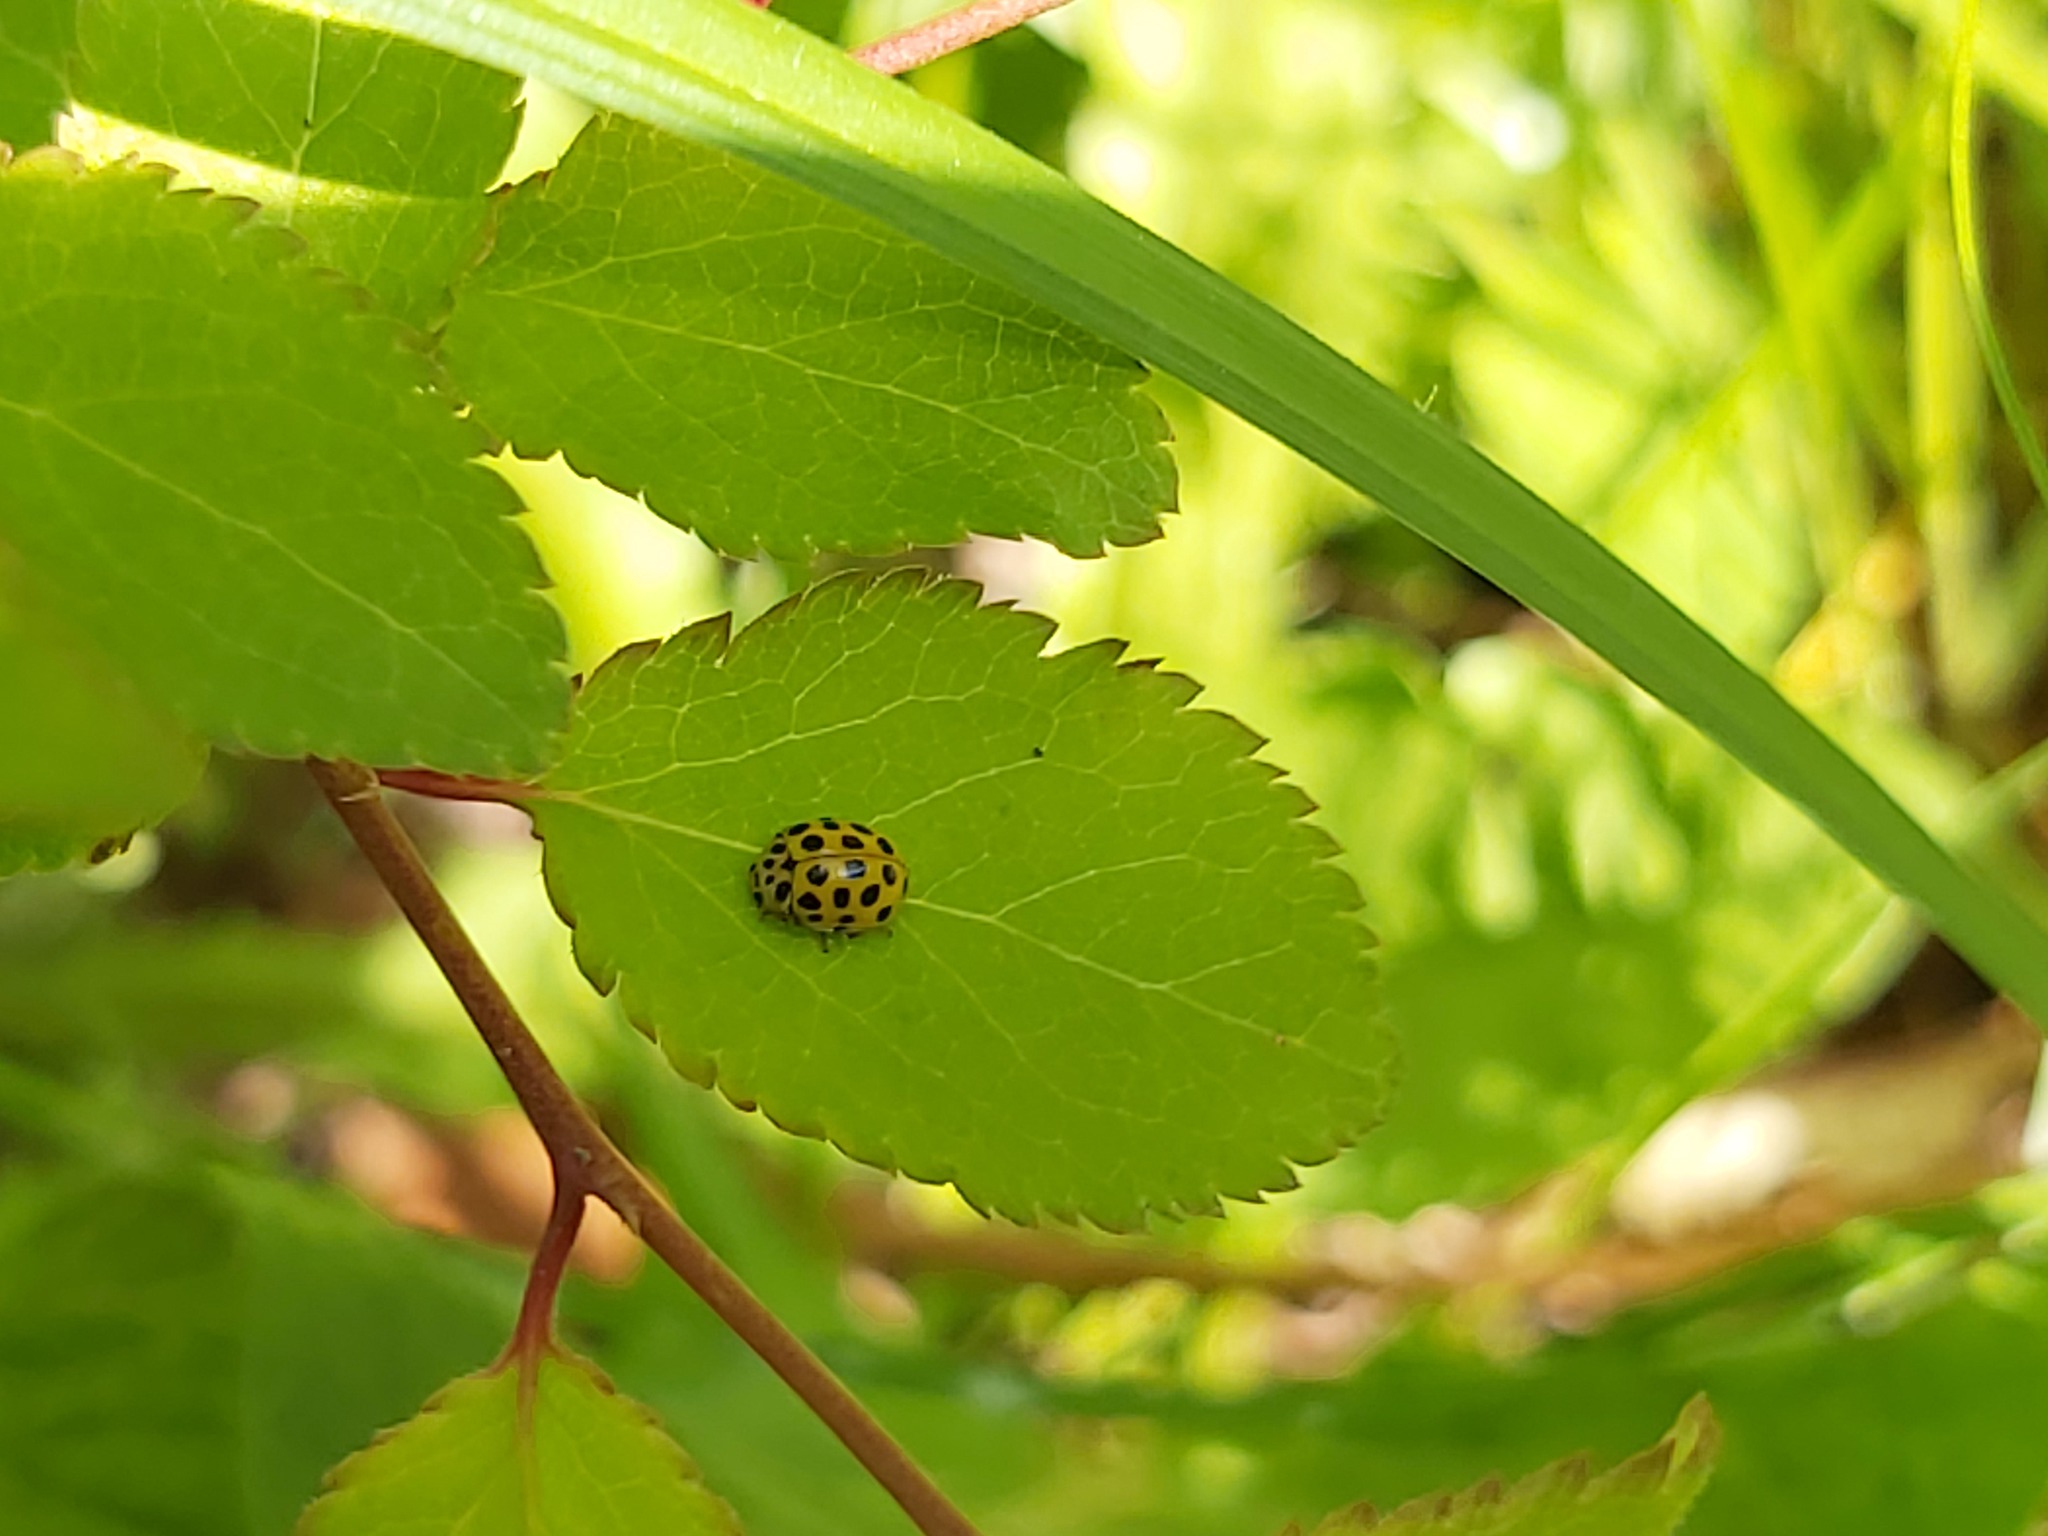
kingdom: Animalia
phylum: Arthropoda
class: Insecta
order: Coleoptera
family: Coccinellidae
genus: Psyllobora
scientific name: Psyllobora vigintiduopunctata
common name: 22-spot ladybird
